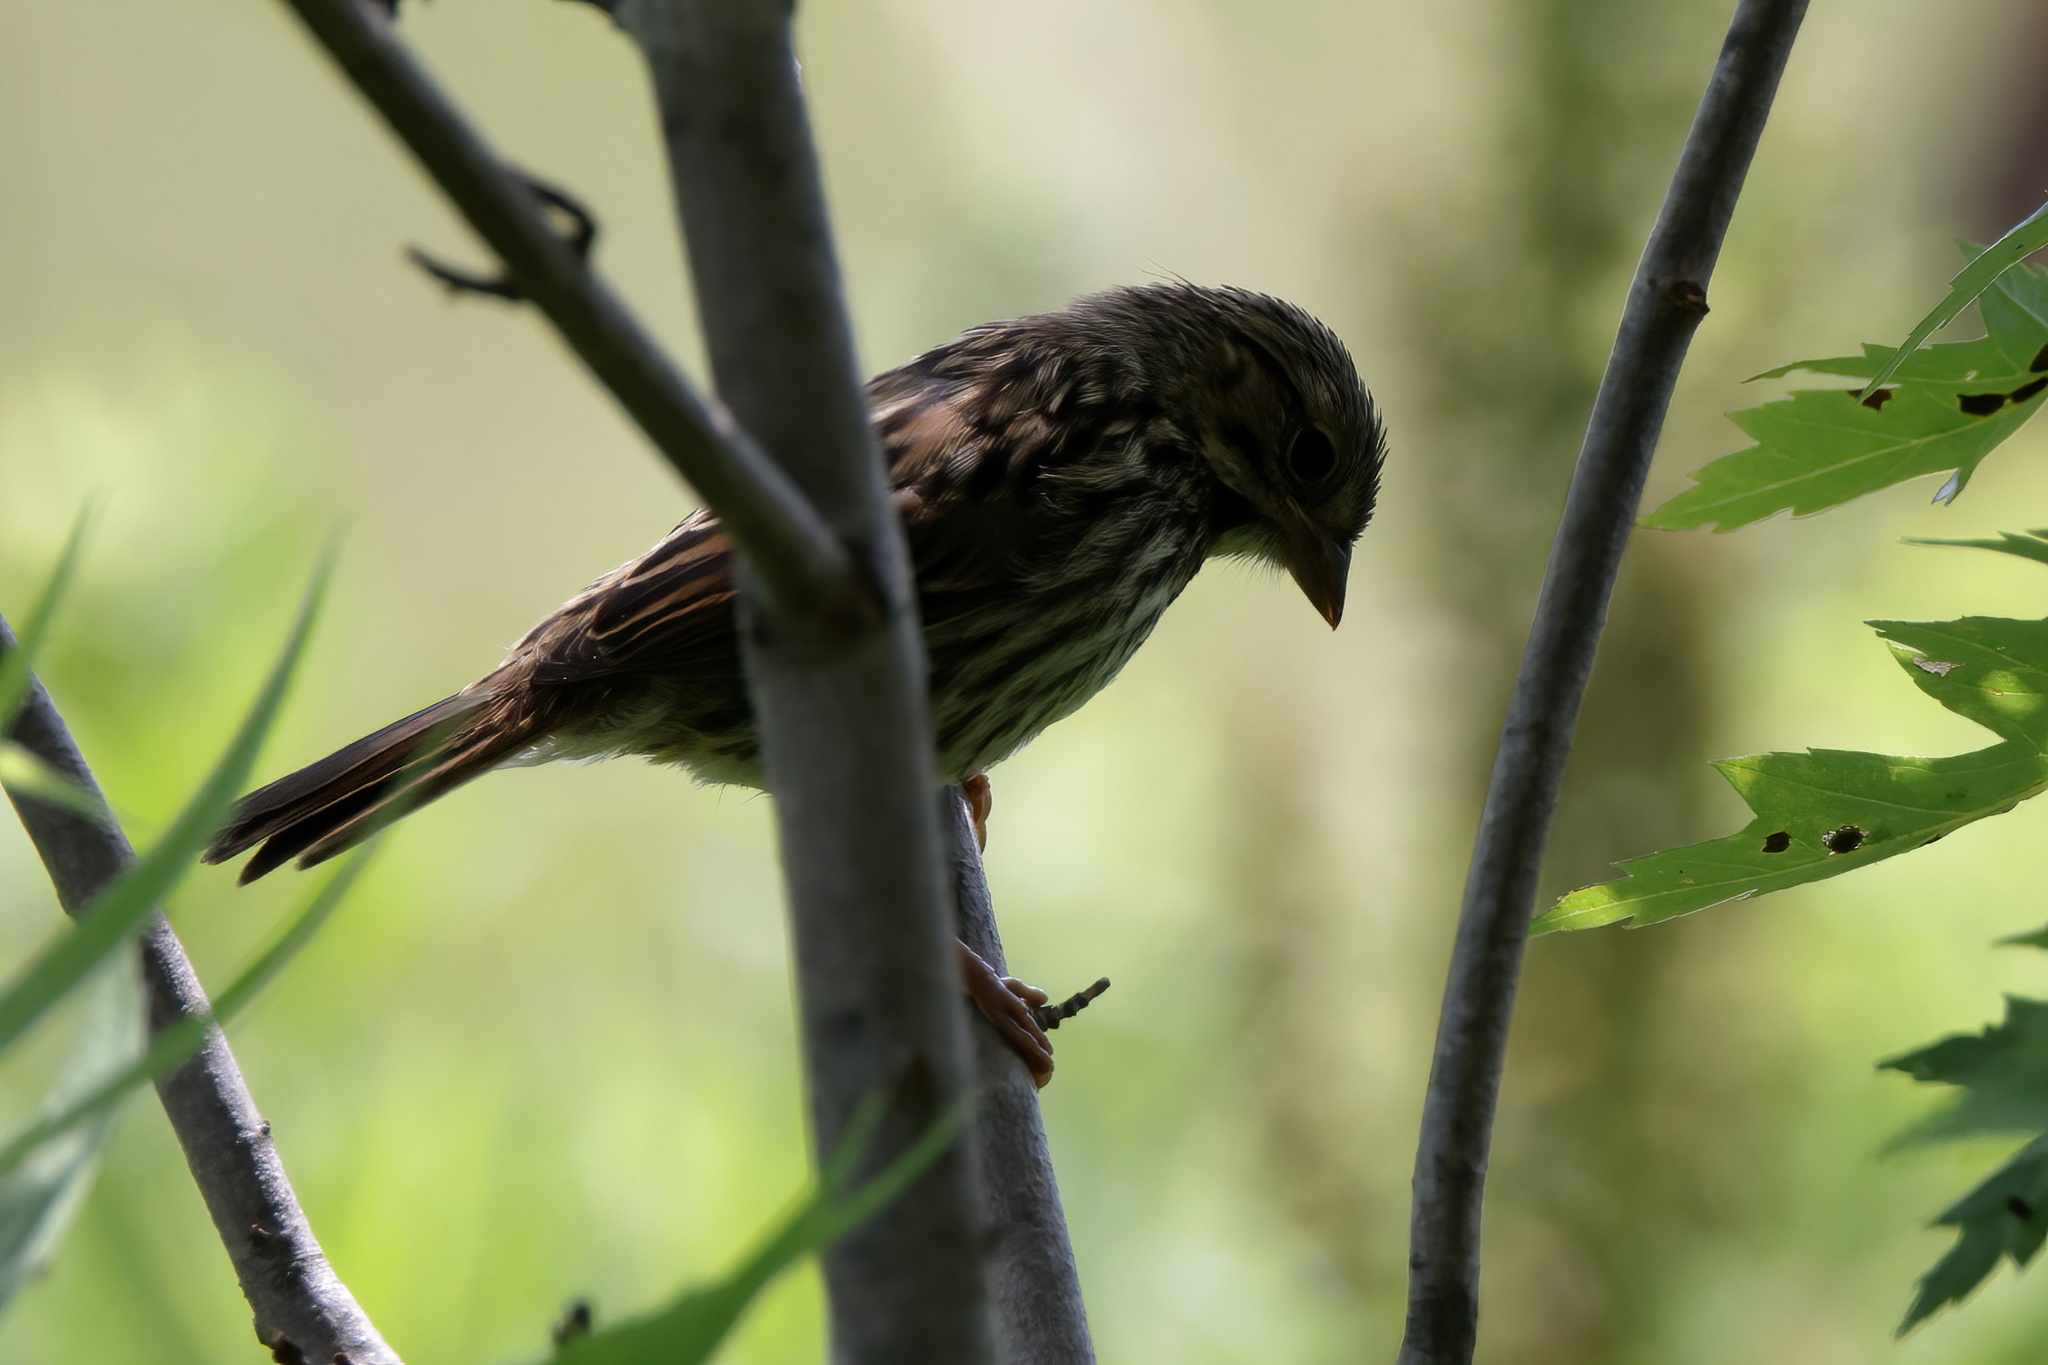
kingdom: Animalia
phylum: Chordata
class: Aves
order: Passeriformes
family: Passerellidae
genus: Melospiza
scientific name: Melospiza melodia
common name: Song sparrow
